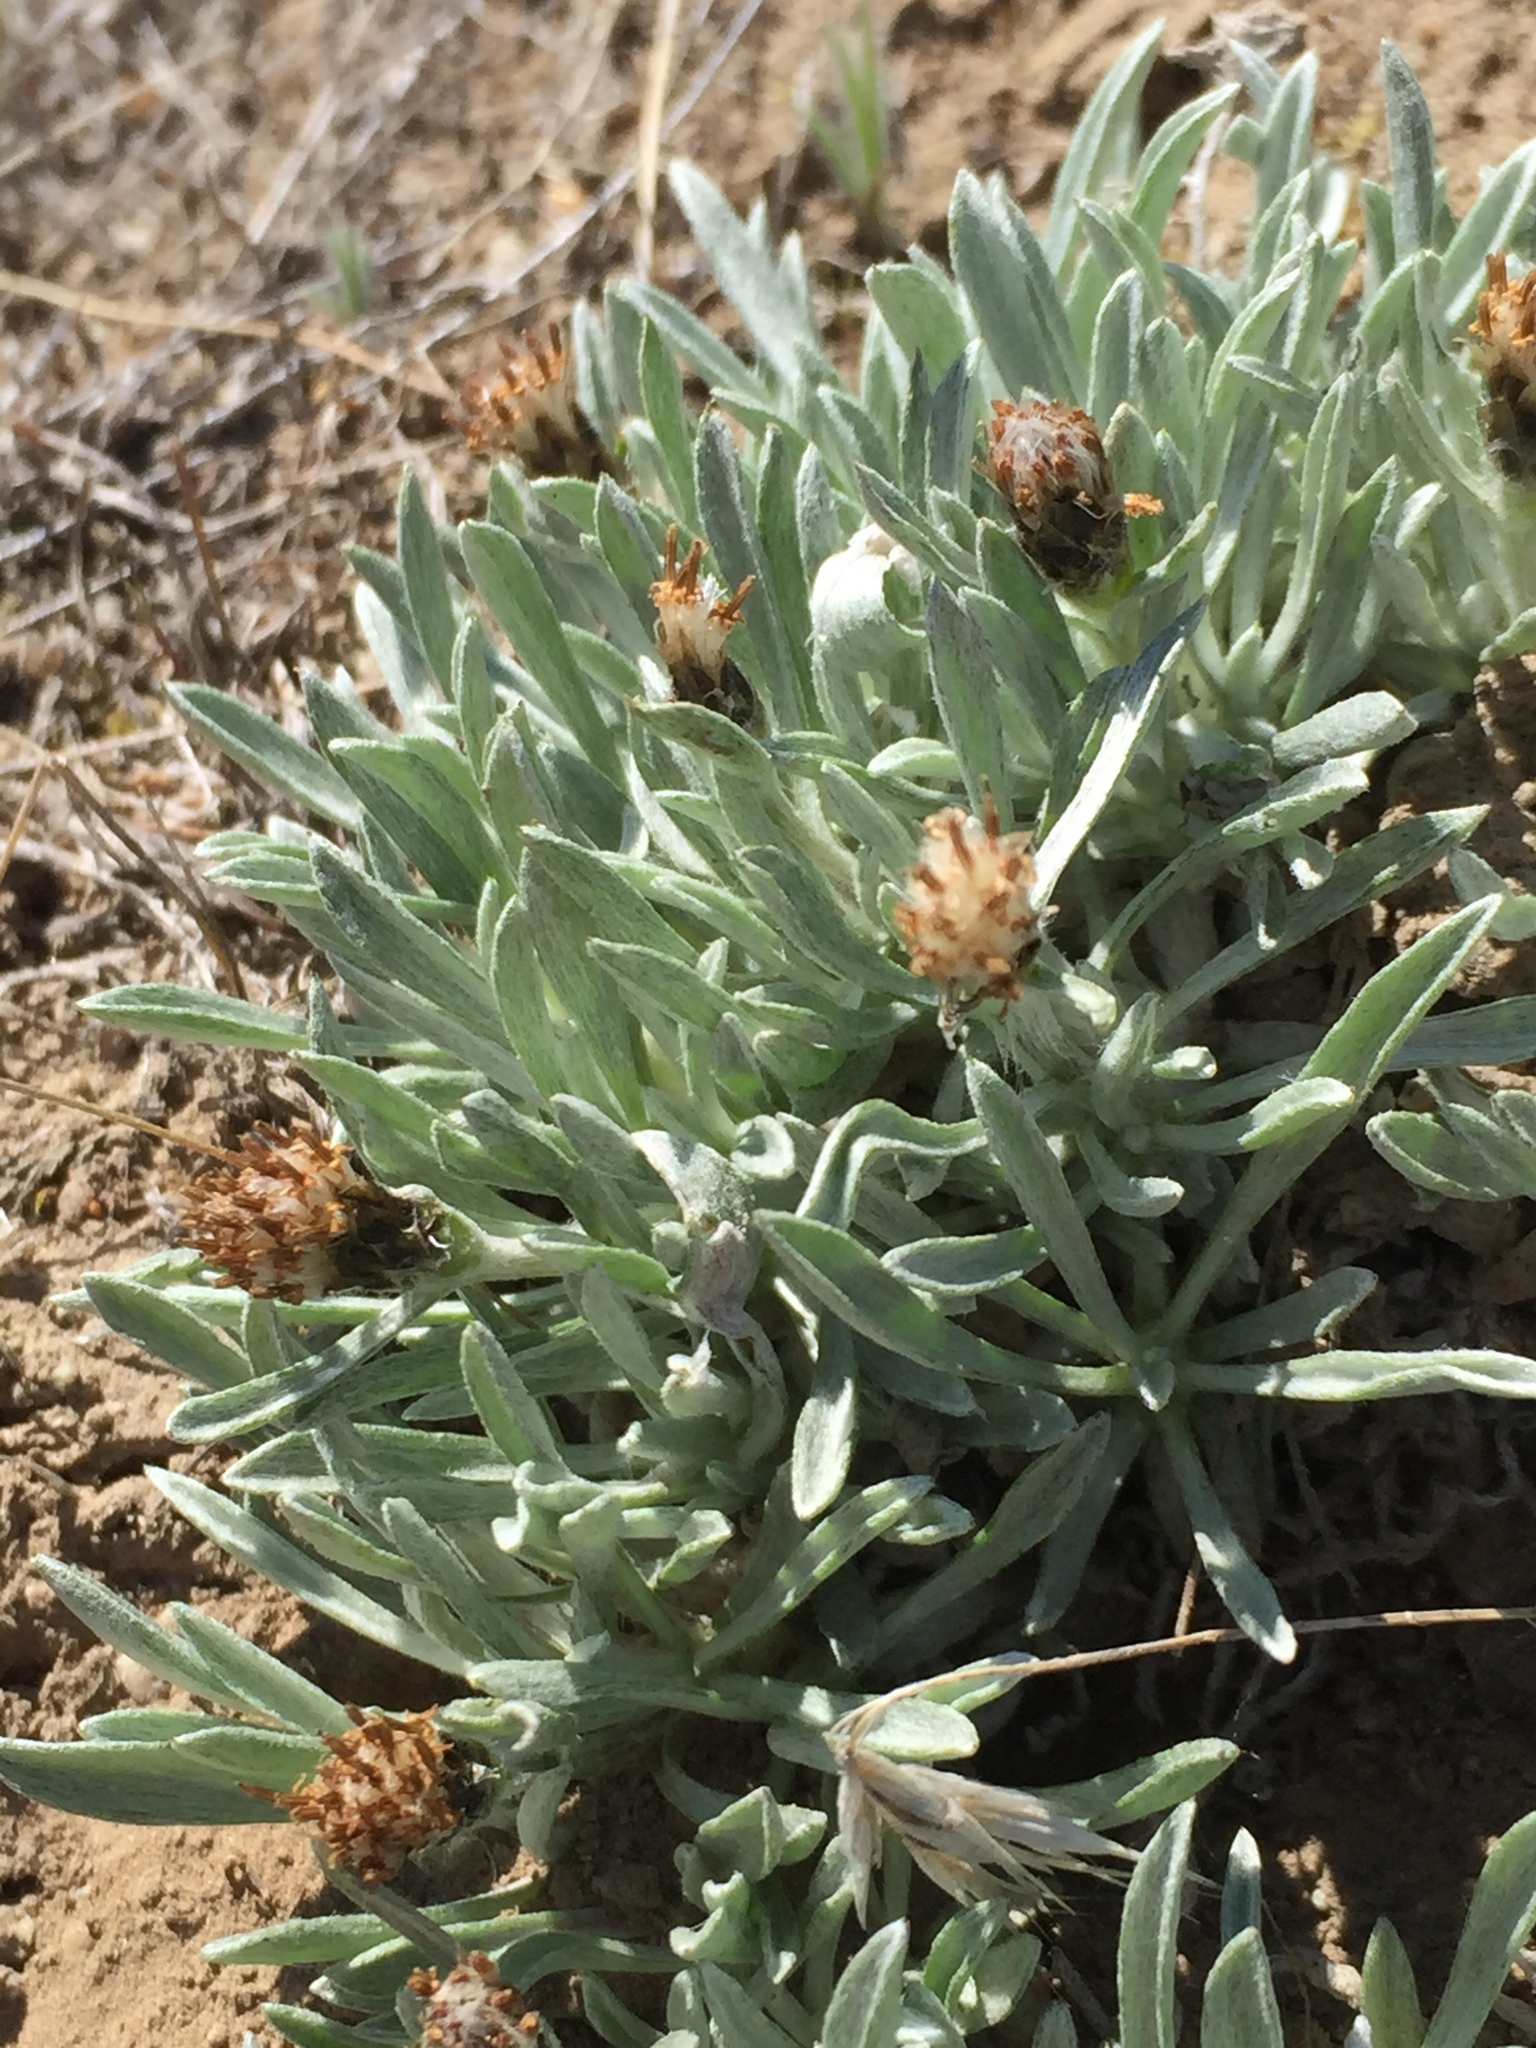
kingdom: Plantae
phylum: Tracheophyta
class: Magnoliopsida
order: Asterales
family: Asteraceae
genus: Antennaria
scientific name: Antennaria dimorpha
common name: Cushion pussytoes
